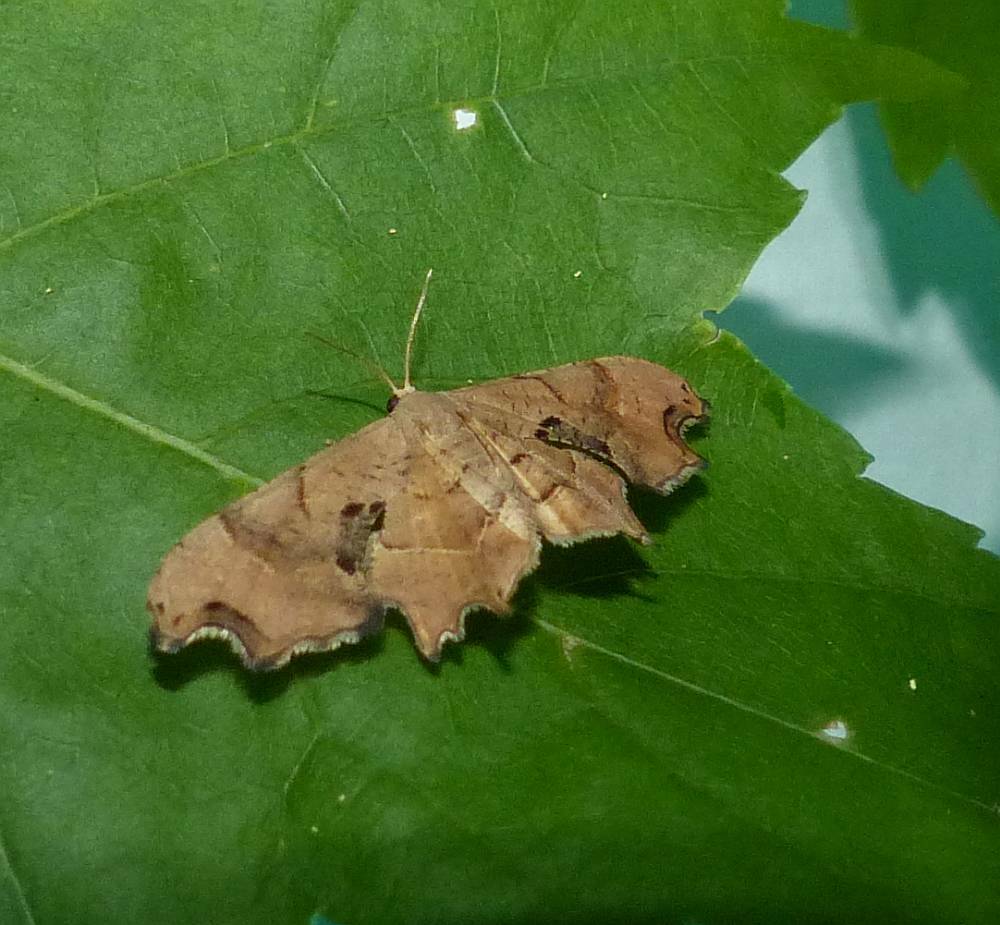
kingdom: Animalia
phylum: Arthropoda
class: Insecta
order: Lepidoptera
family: Uraniidae
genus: Epiplema
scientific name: Epiplema Calledapteryx dryopterata
